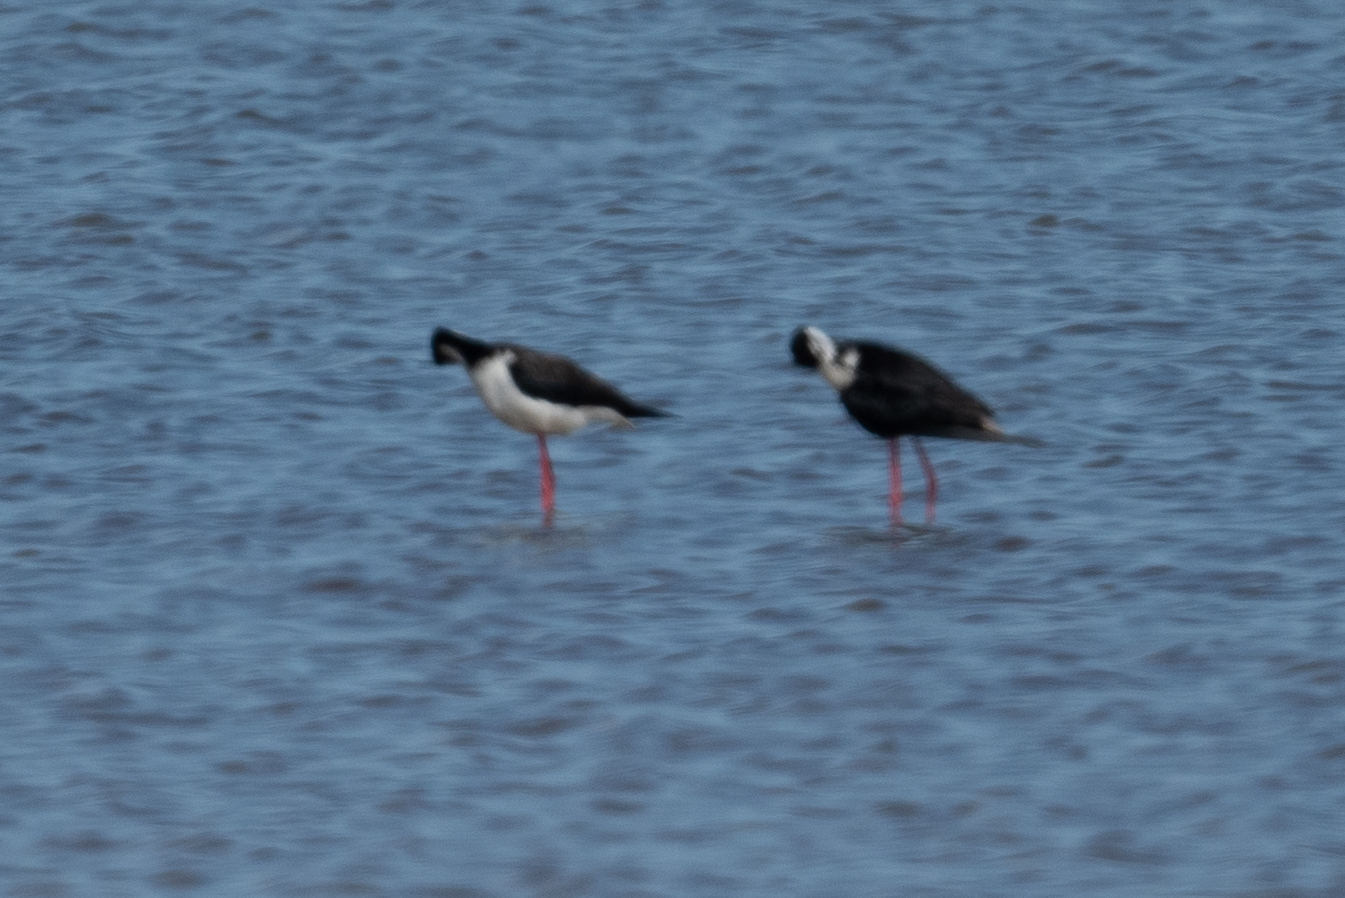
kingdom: Animalia
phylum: Chordata
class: Aves
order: Charadriiformes
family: Recurvirostridae
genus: Himantopus
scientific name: Himantopus mexicanus
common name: Black-necked stilt
